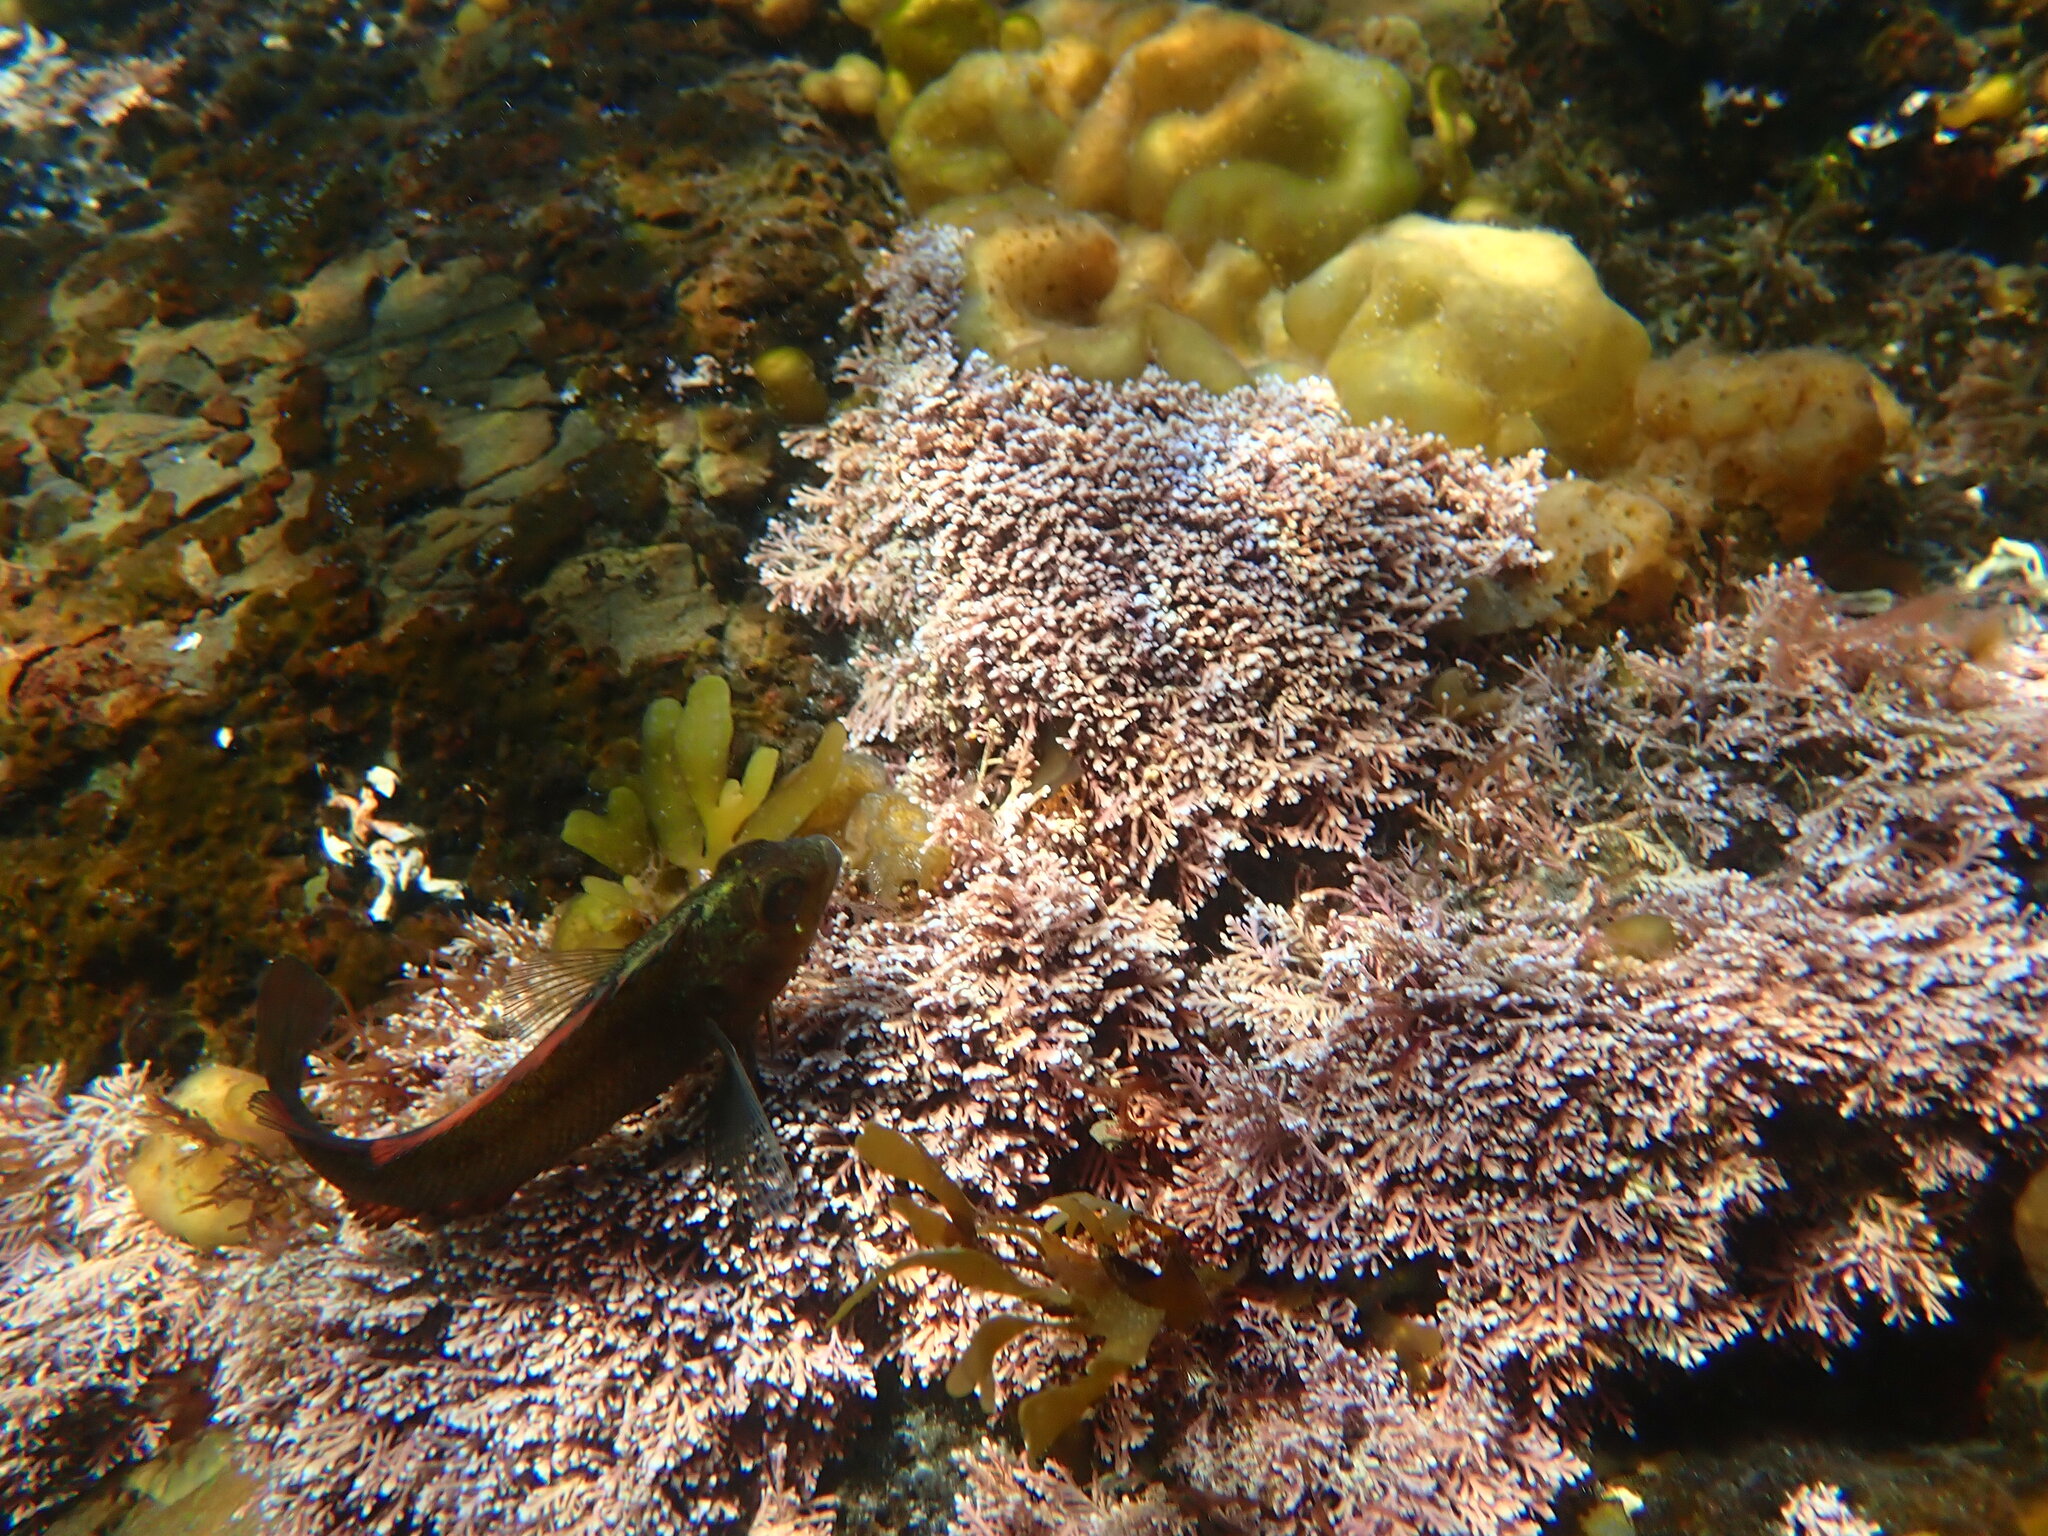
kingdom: Animalia
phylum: Chordata
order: Perciformes
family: Tripterygiidae
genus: Forsterygion
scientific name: Forsterygion lapillum
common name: Common triplefin
